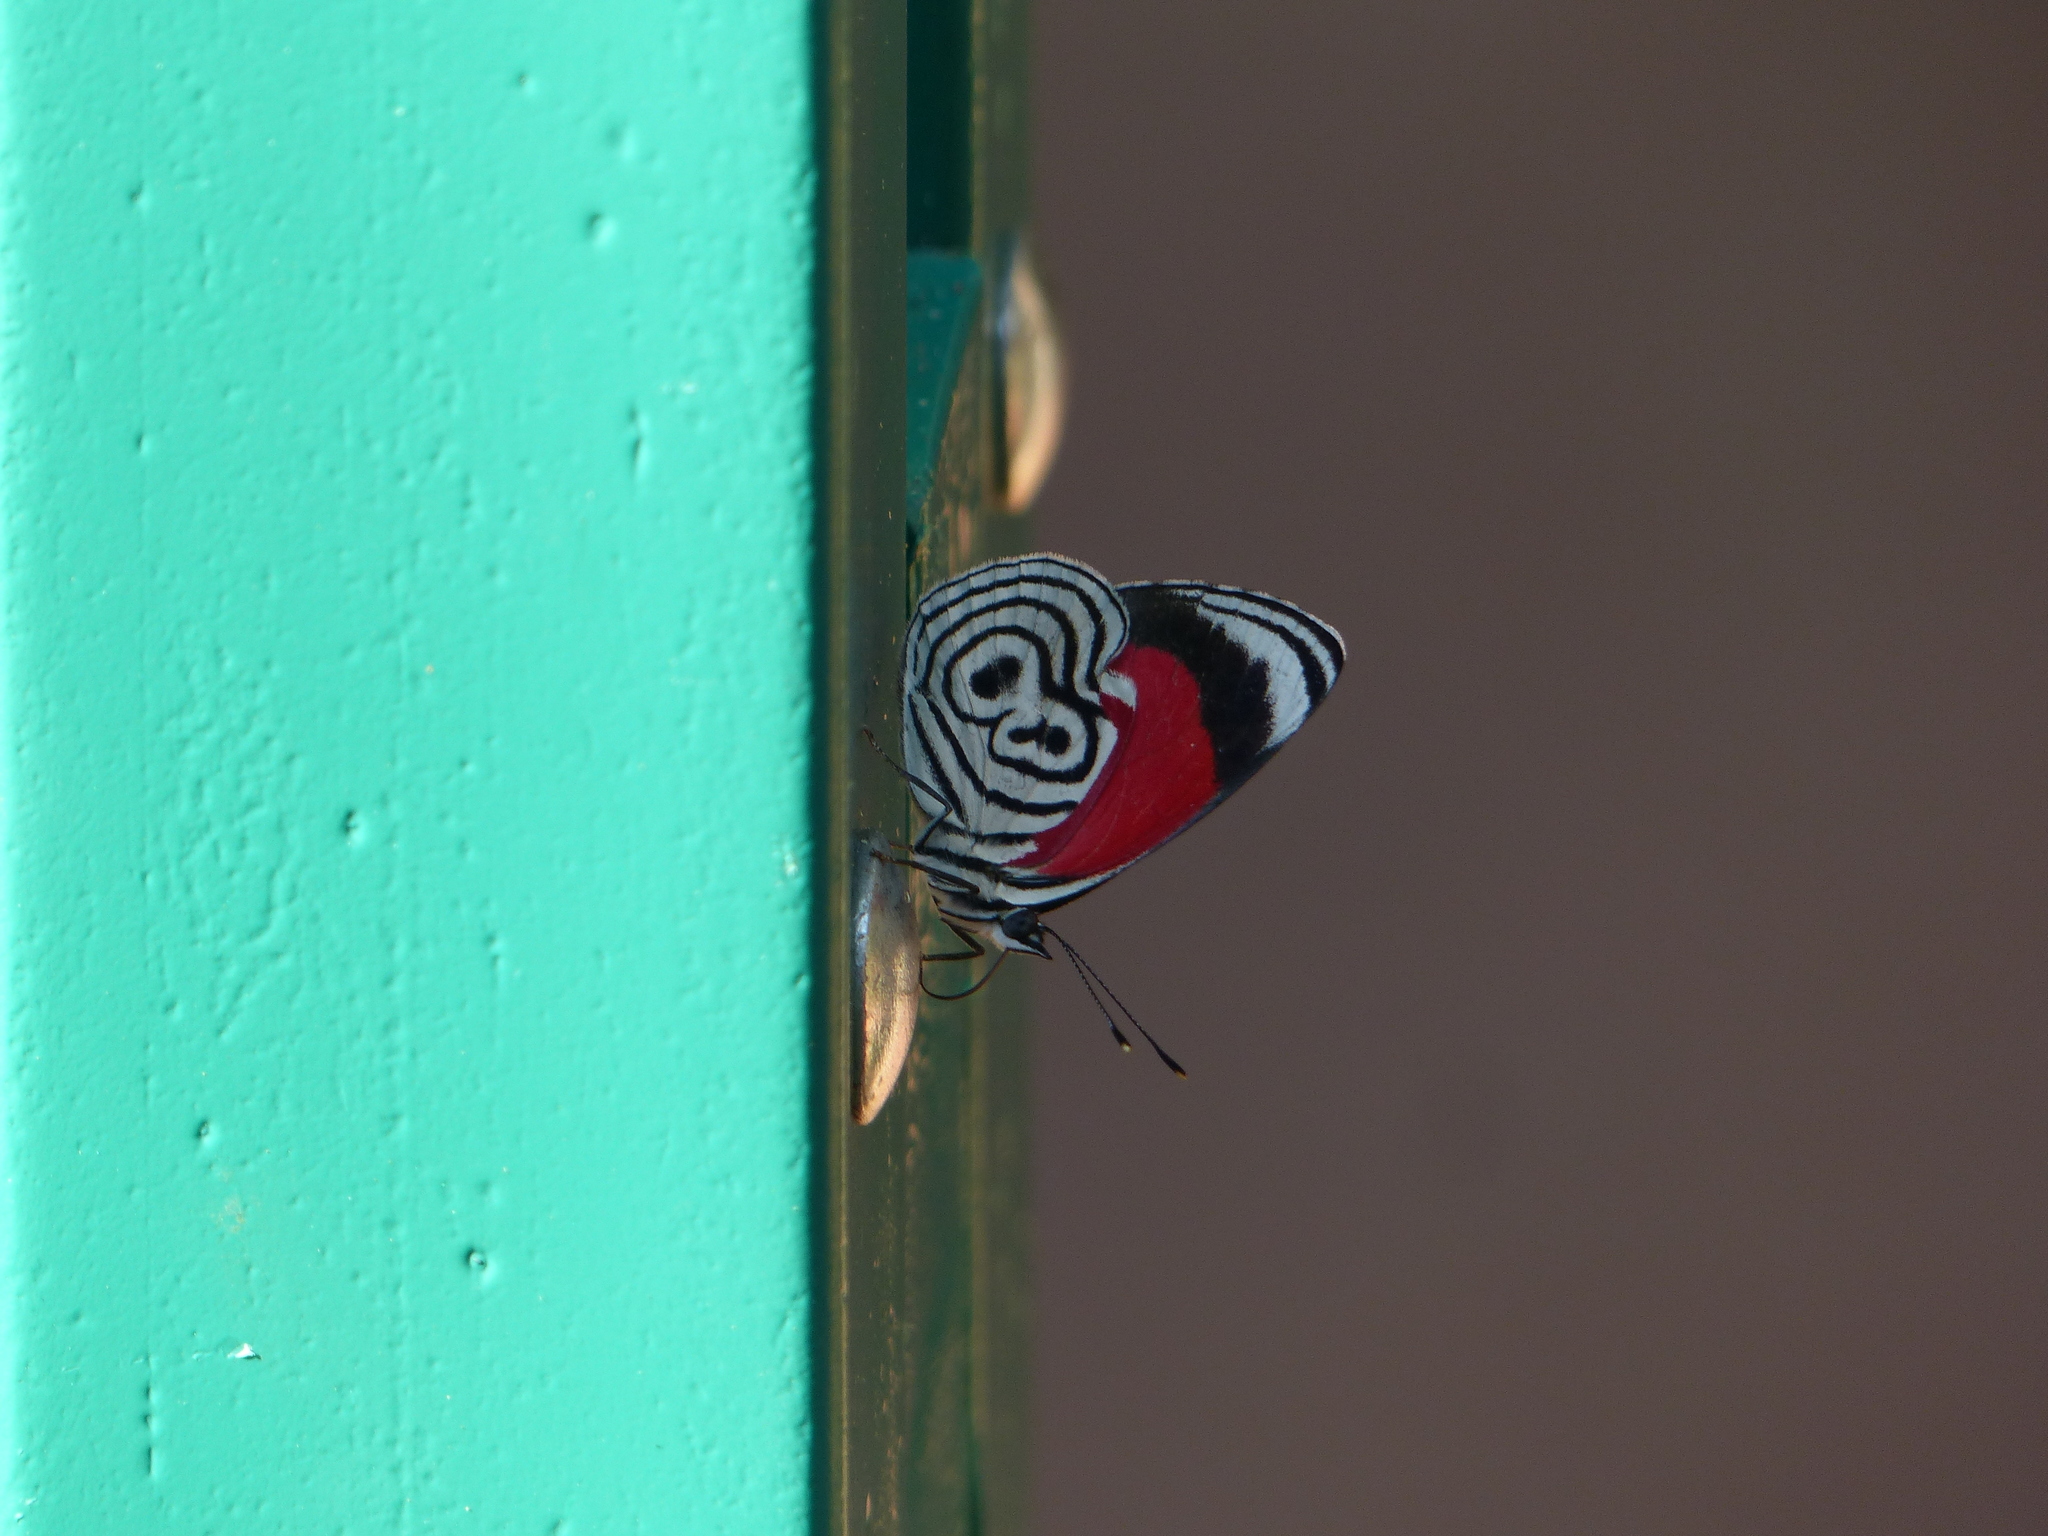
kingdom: Animalia
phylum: Arthropoda
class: Insecta
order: Lepidoptera
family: Nymphalidae
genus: Diaethria
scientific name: Diaethria clymena
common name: Widespread eighty-eight
